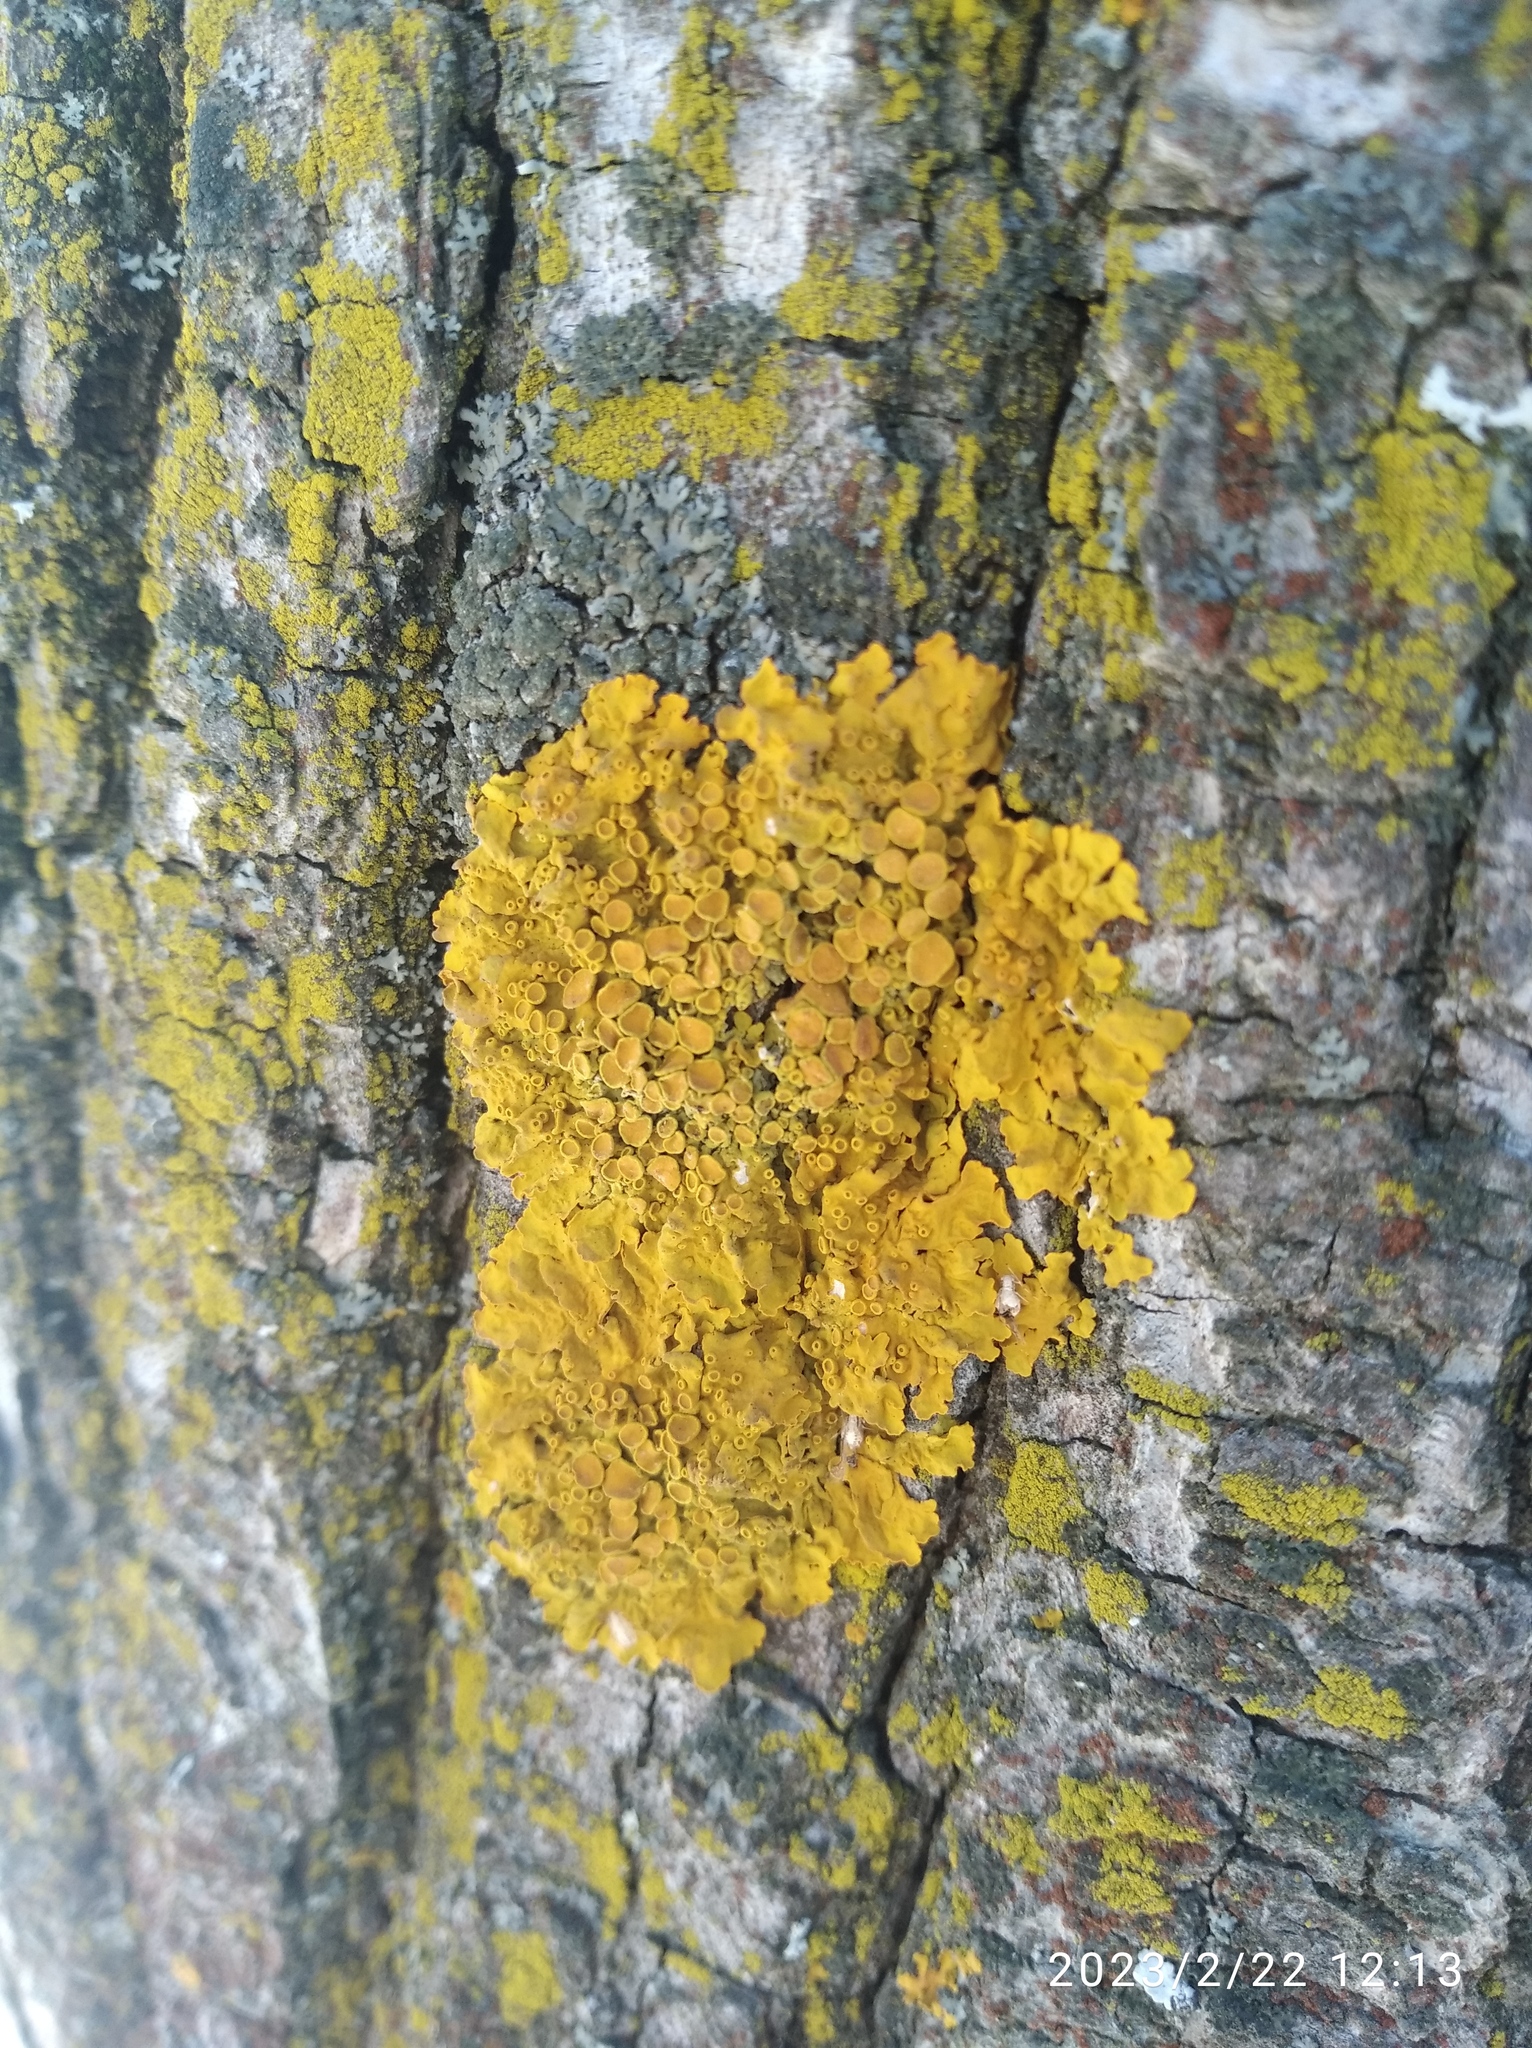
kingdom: Fungi
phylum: Ascomycota
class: Lecanoromycetes
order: Teloschistales
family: Teloschistaceae
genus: Xanthoria
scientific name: Xanthoria parietina
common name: Common orange lichen
